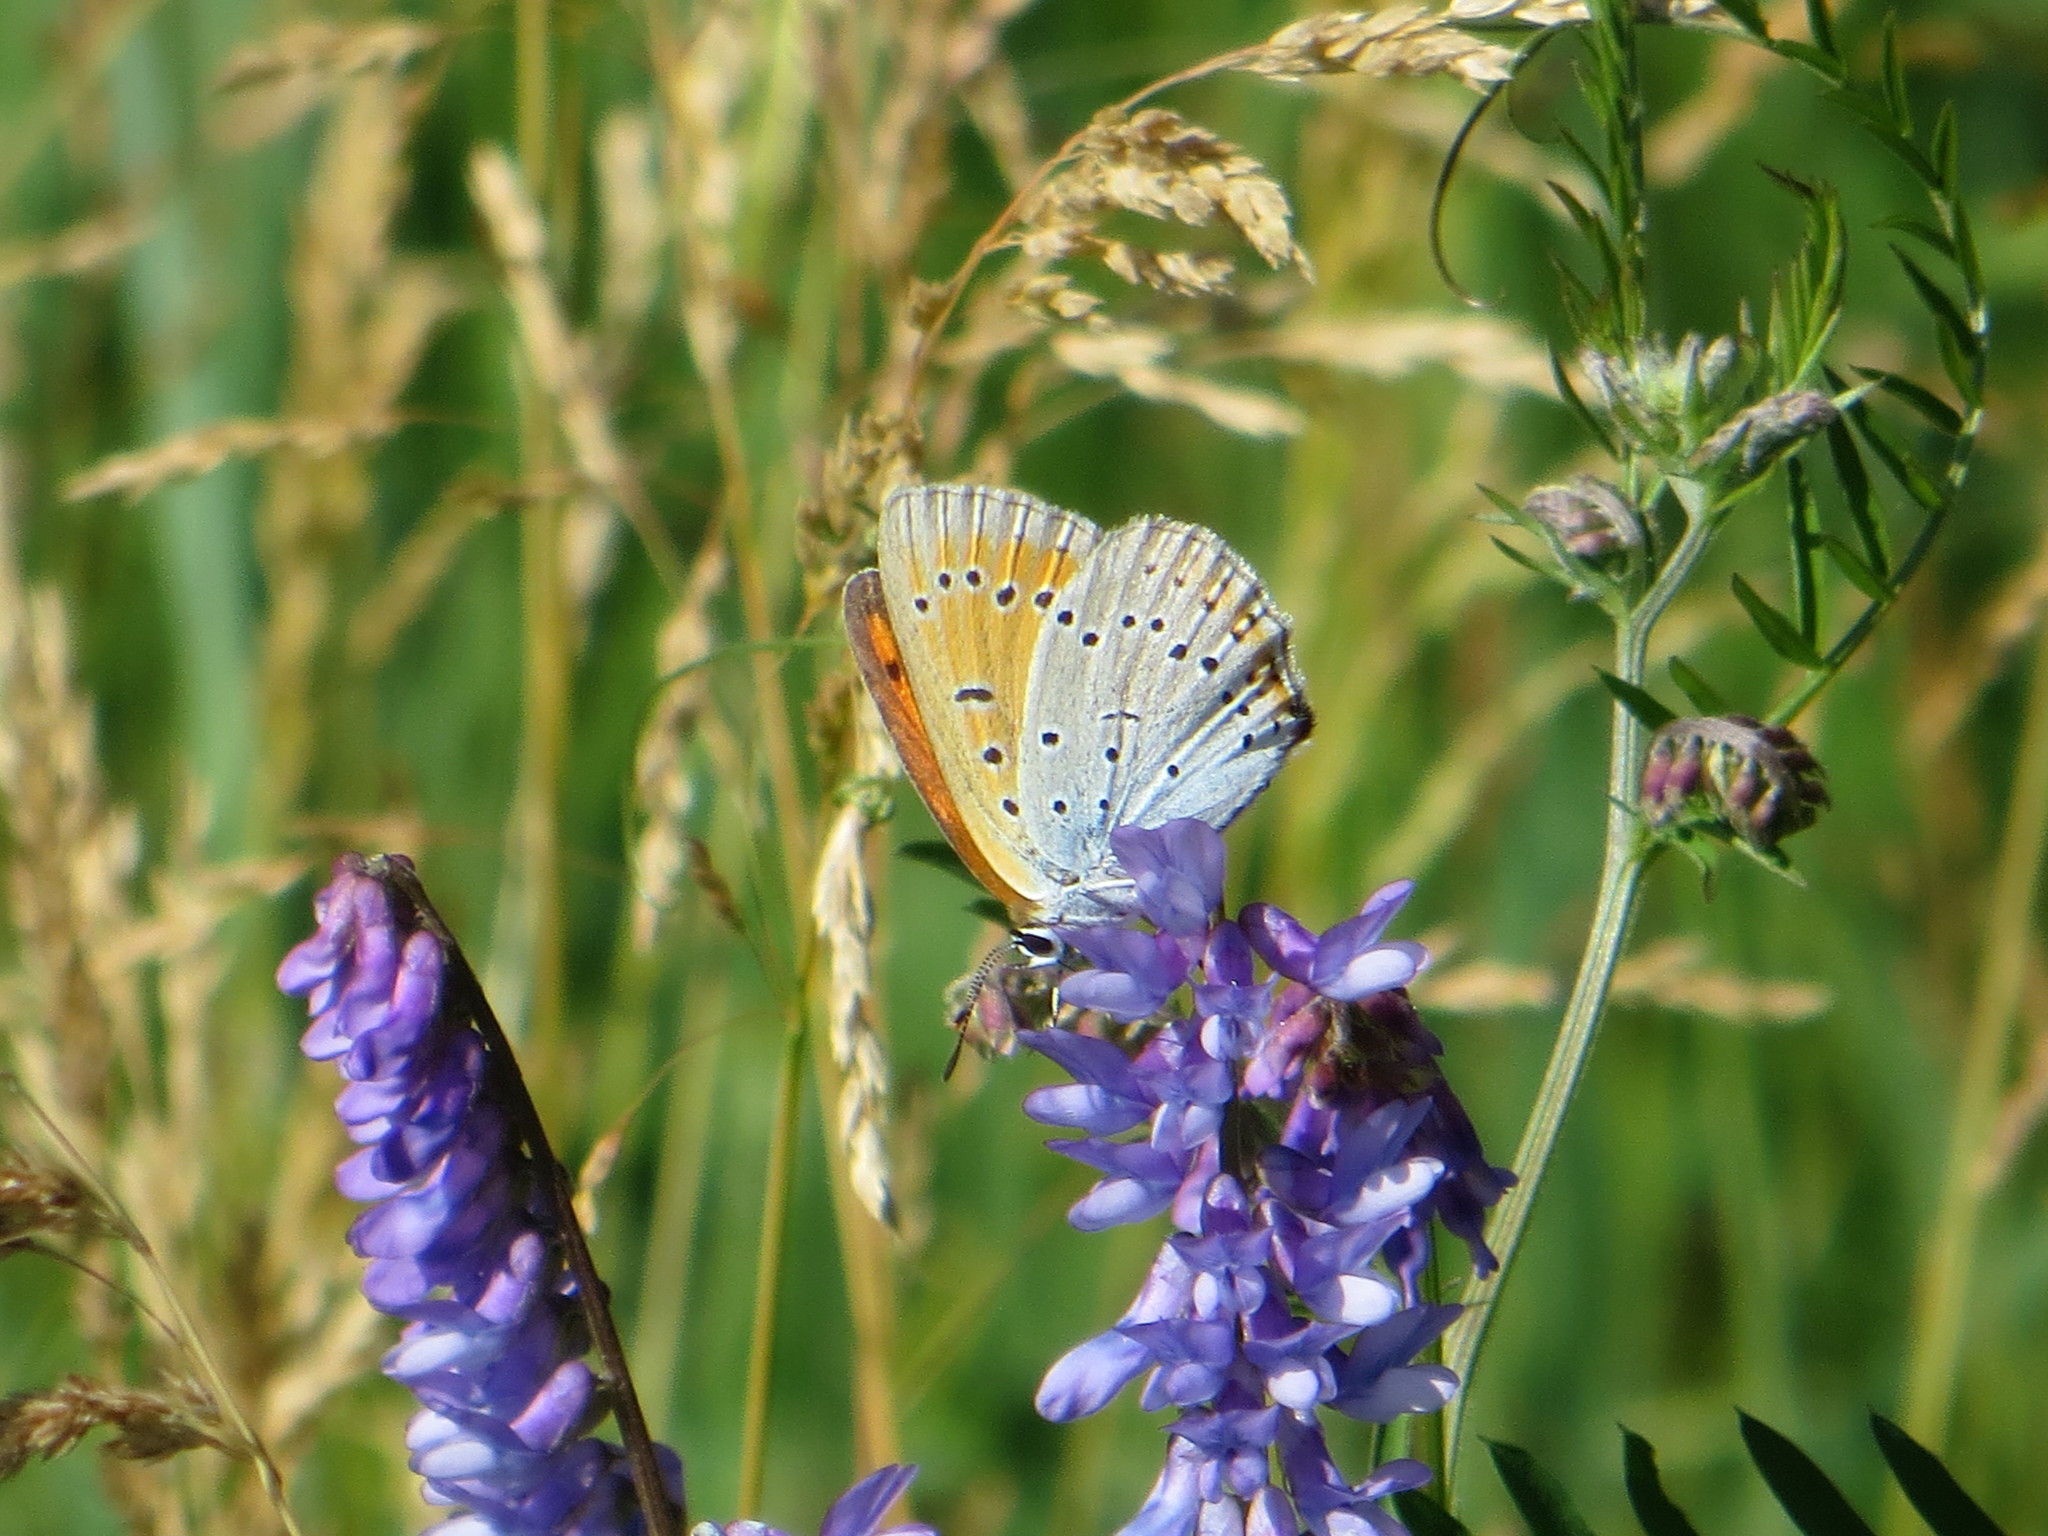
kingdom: Animalia
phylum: Arthropoda
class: Insecta
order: Lepidoptera
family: Lycaenidae
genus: Lycaena
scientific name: Lycaena dispar
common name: Large copper
